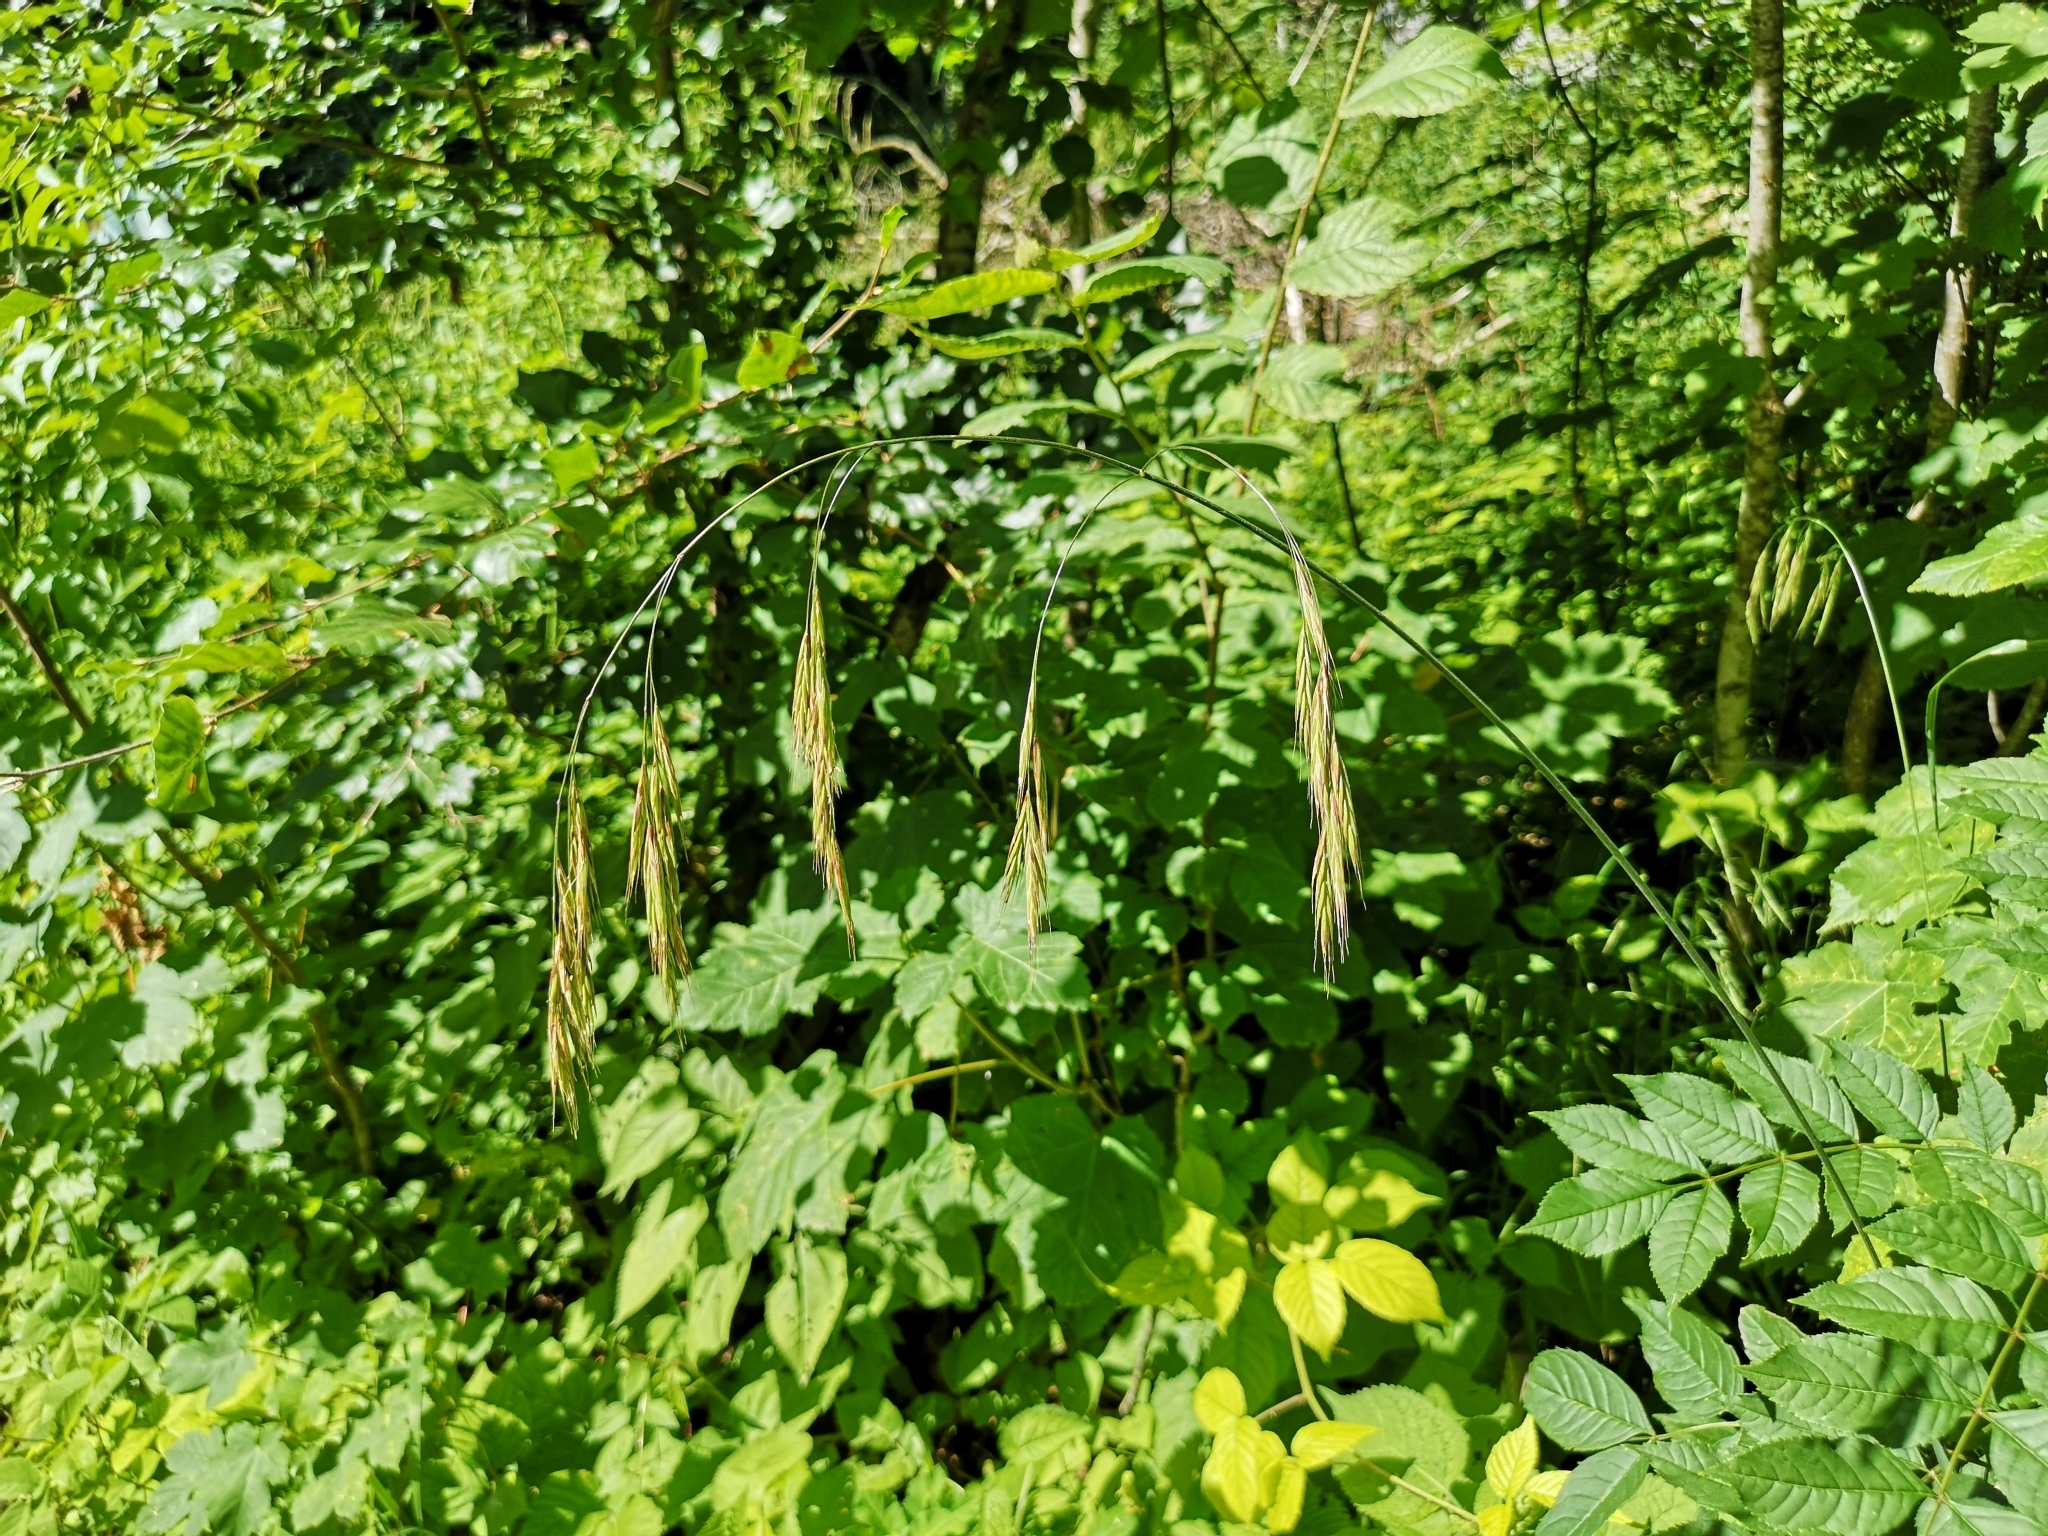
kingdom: Plantae
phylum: Tracheophyta
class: Liliopsida
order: Poales
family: Poaceae
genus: Bromus
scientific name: Bromus ramosus
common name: Hairy brome
